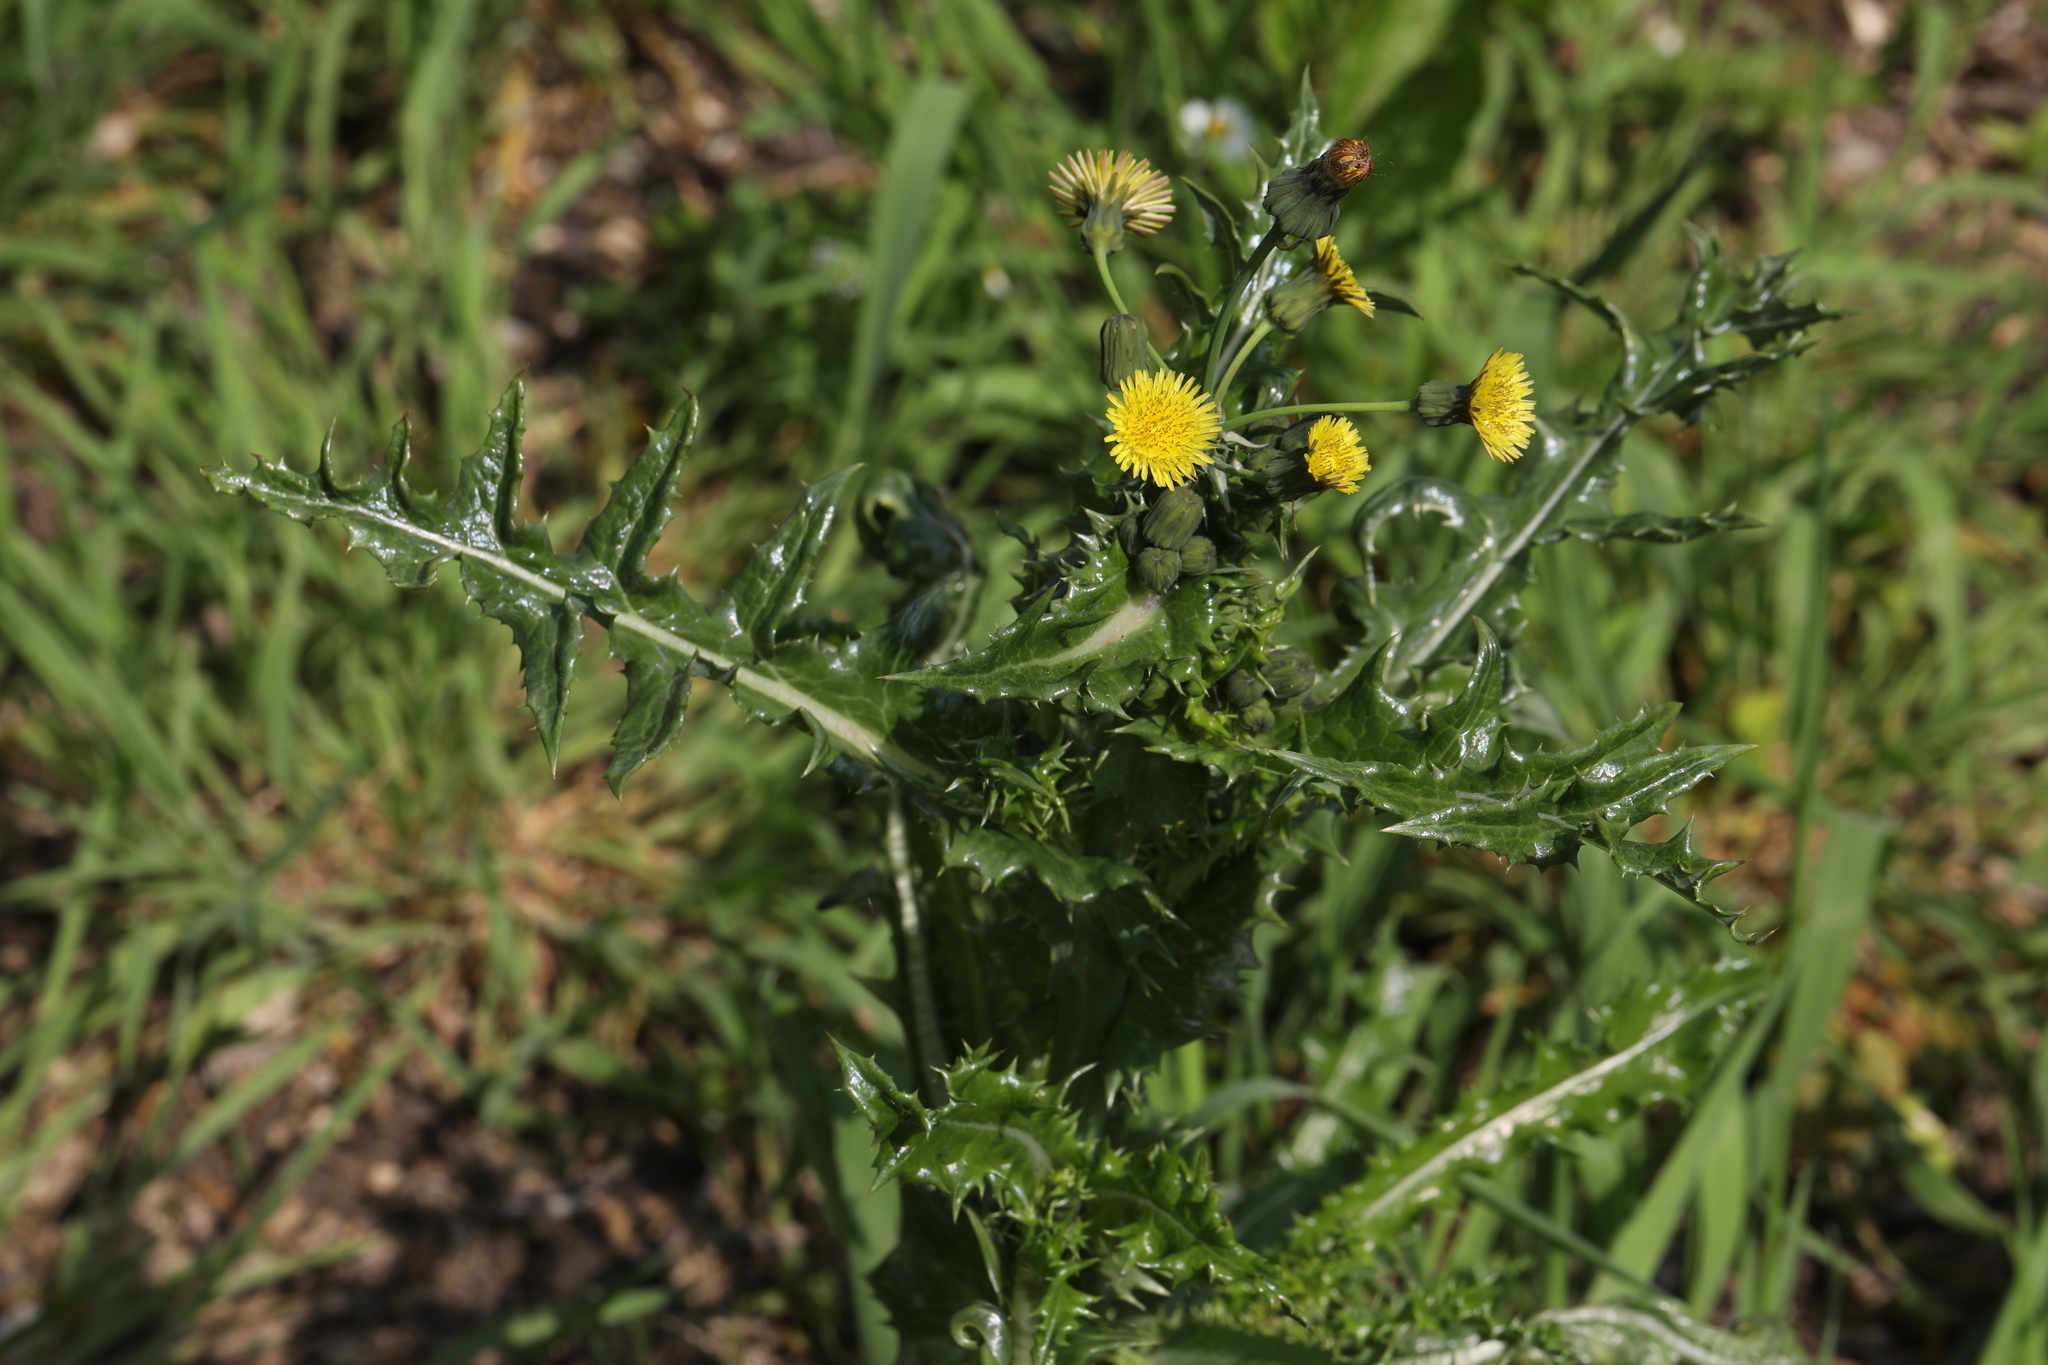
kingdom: Plantae
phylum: Tracheophyta
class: Magnoliopsida
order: Asterales
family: Asteraceae
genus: Sonchus
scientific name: Sonchus asper
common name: Prickly sow-thistle
